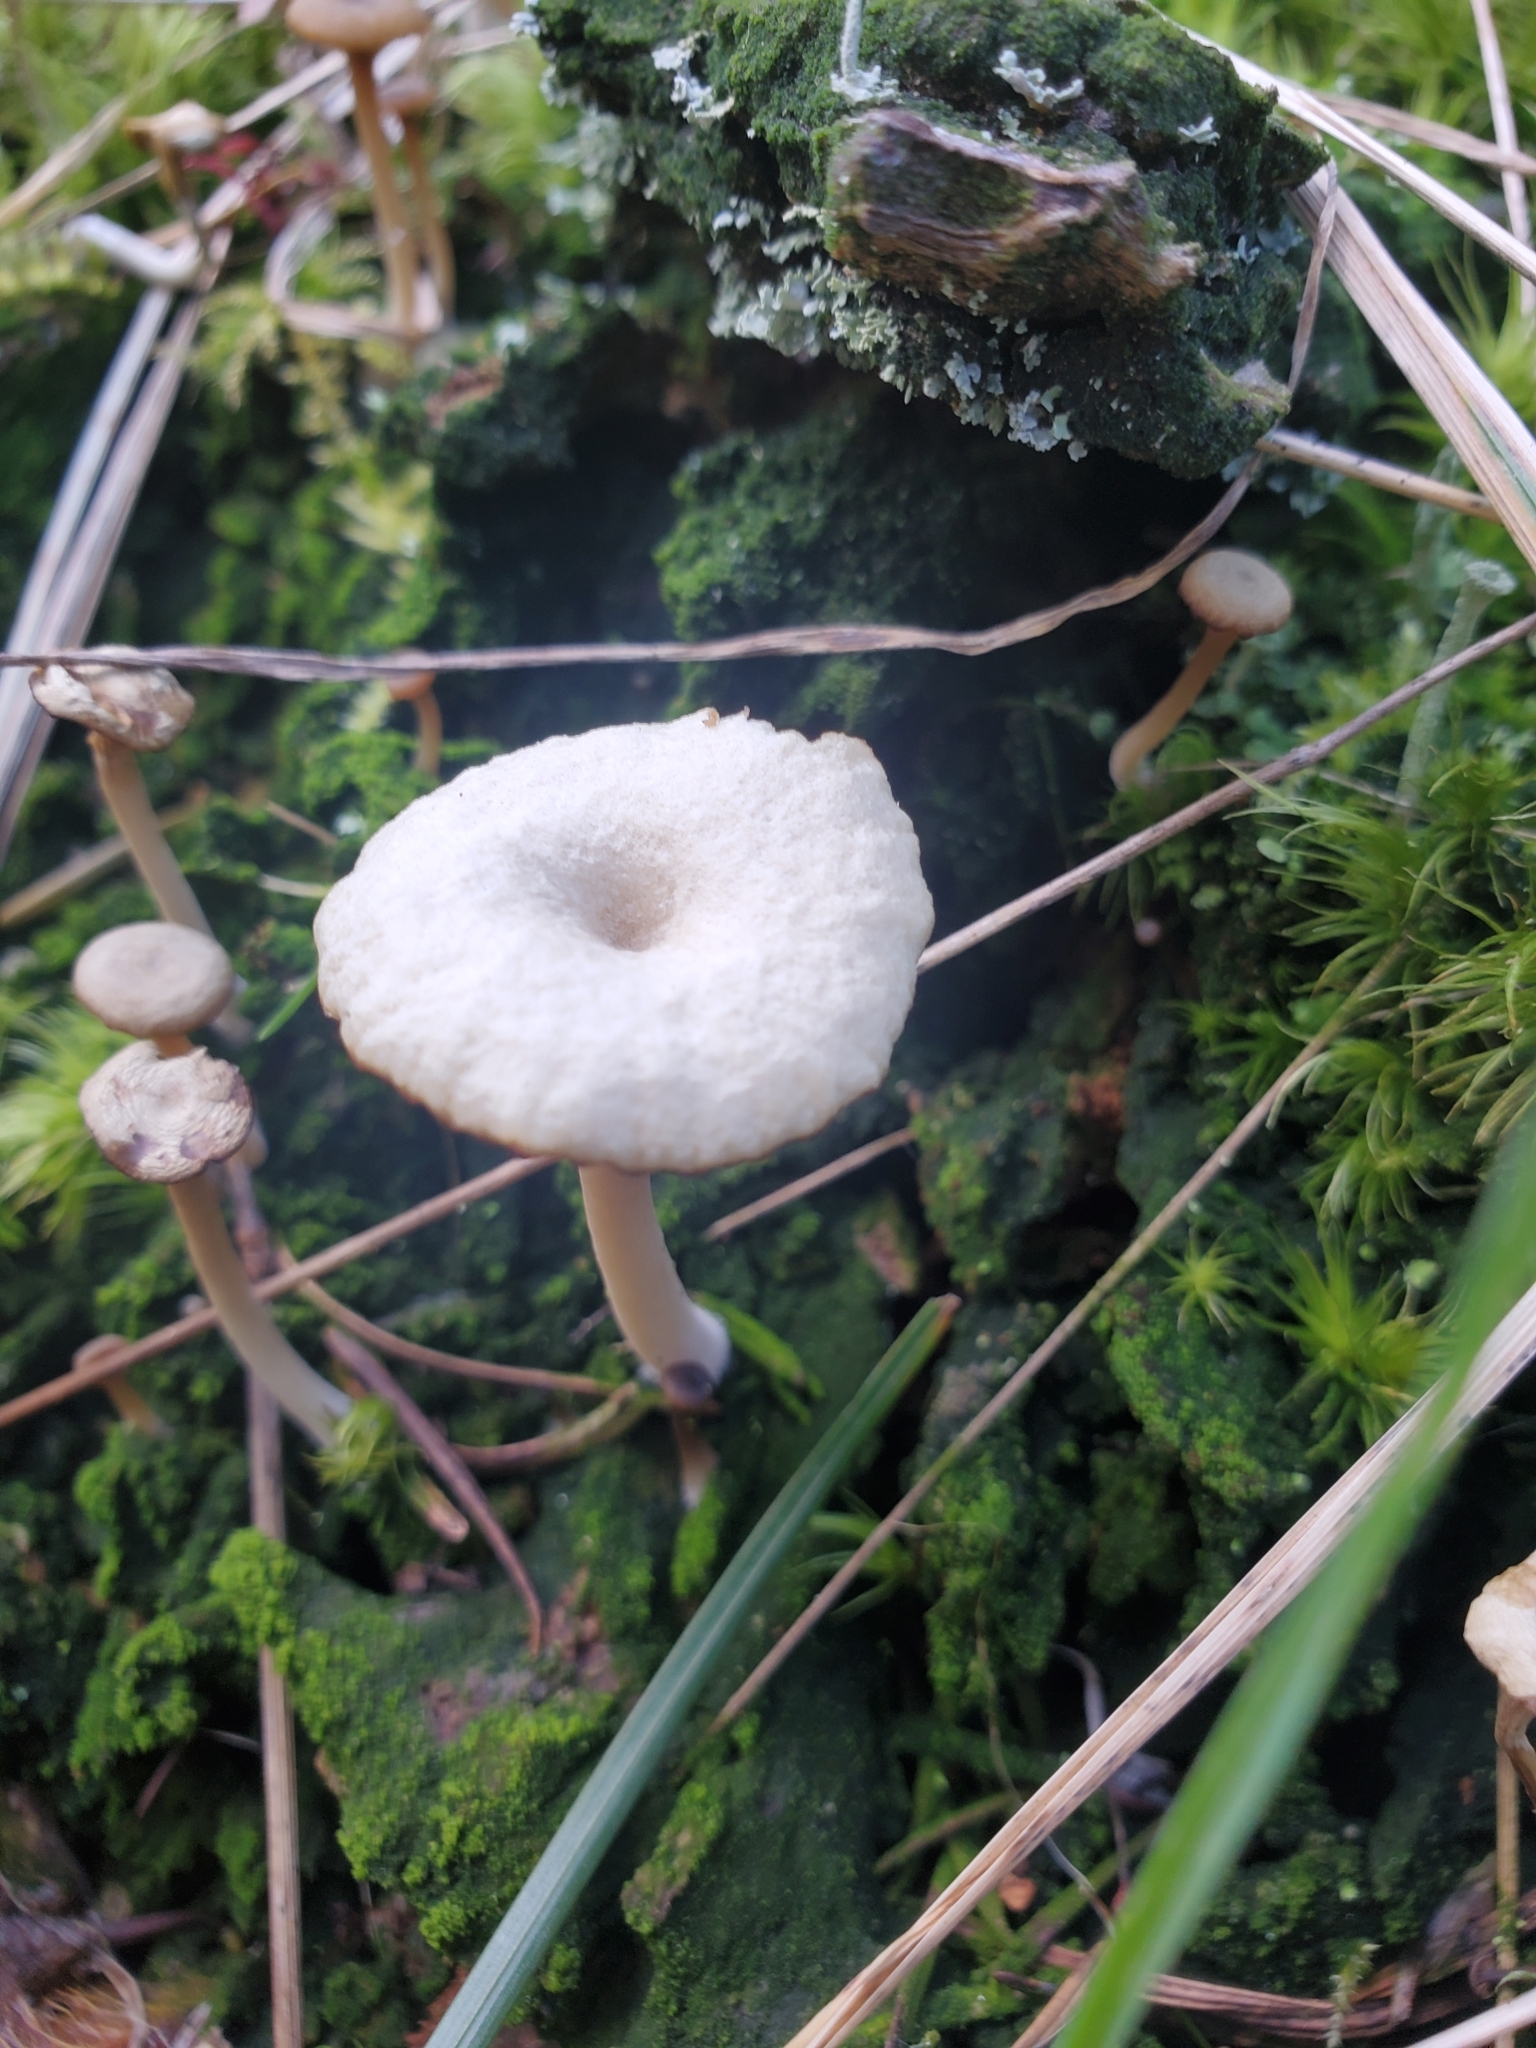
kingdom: Fungi
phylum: Basidiomycota
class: Agaricomycetes
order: Agaricales
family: Hygrophoraceae
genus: Lichenomphalia
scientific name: Lichenomphalia
